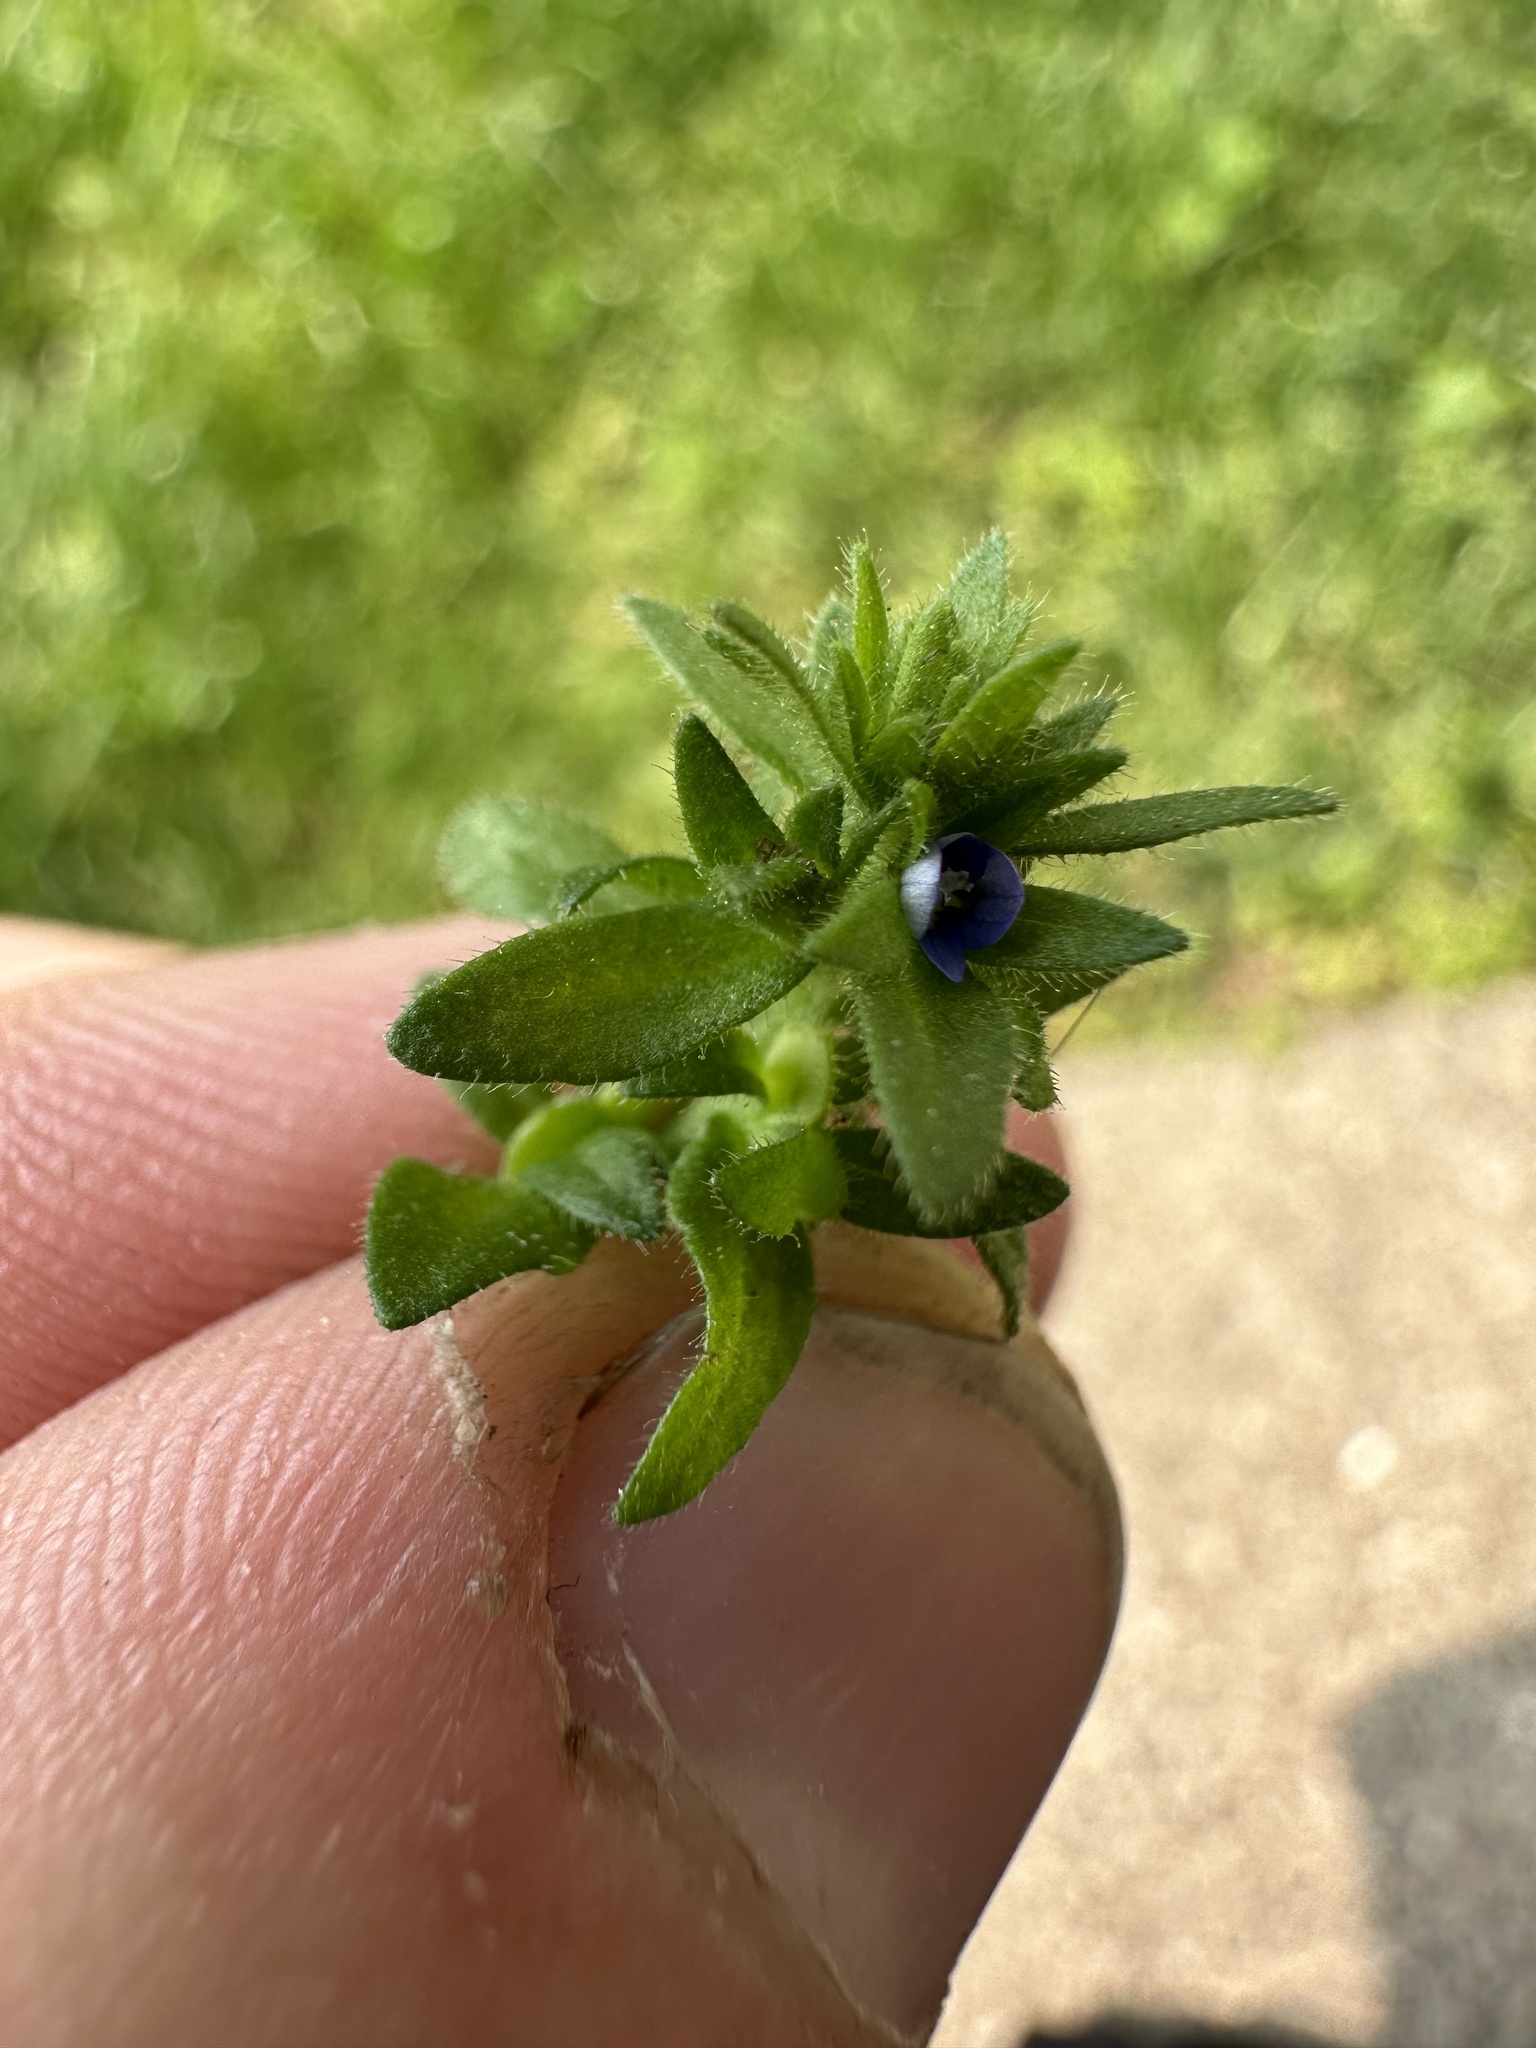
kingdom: Plantae
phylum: Tracheophyta
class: Magnoliopsida
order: Lamiales
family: Plantaginaceae
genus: Veronica
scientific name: Veronica arvensis
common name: Corn speedwell
